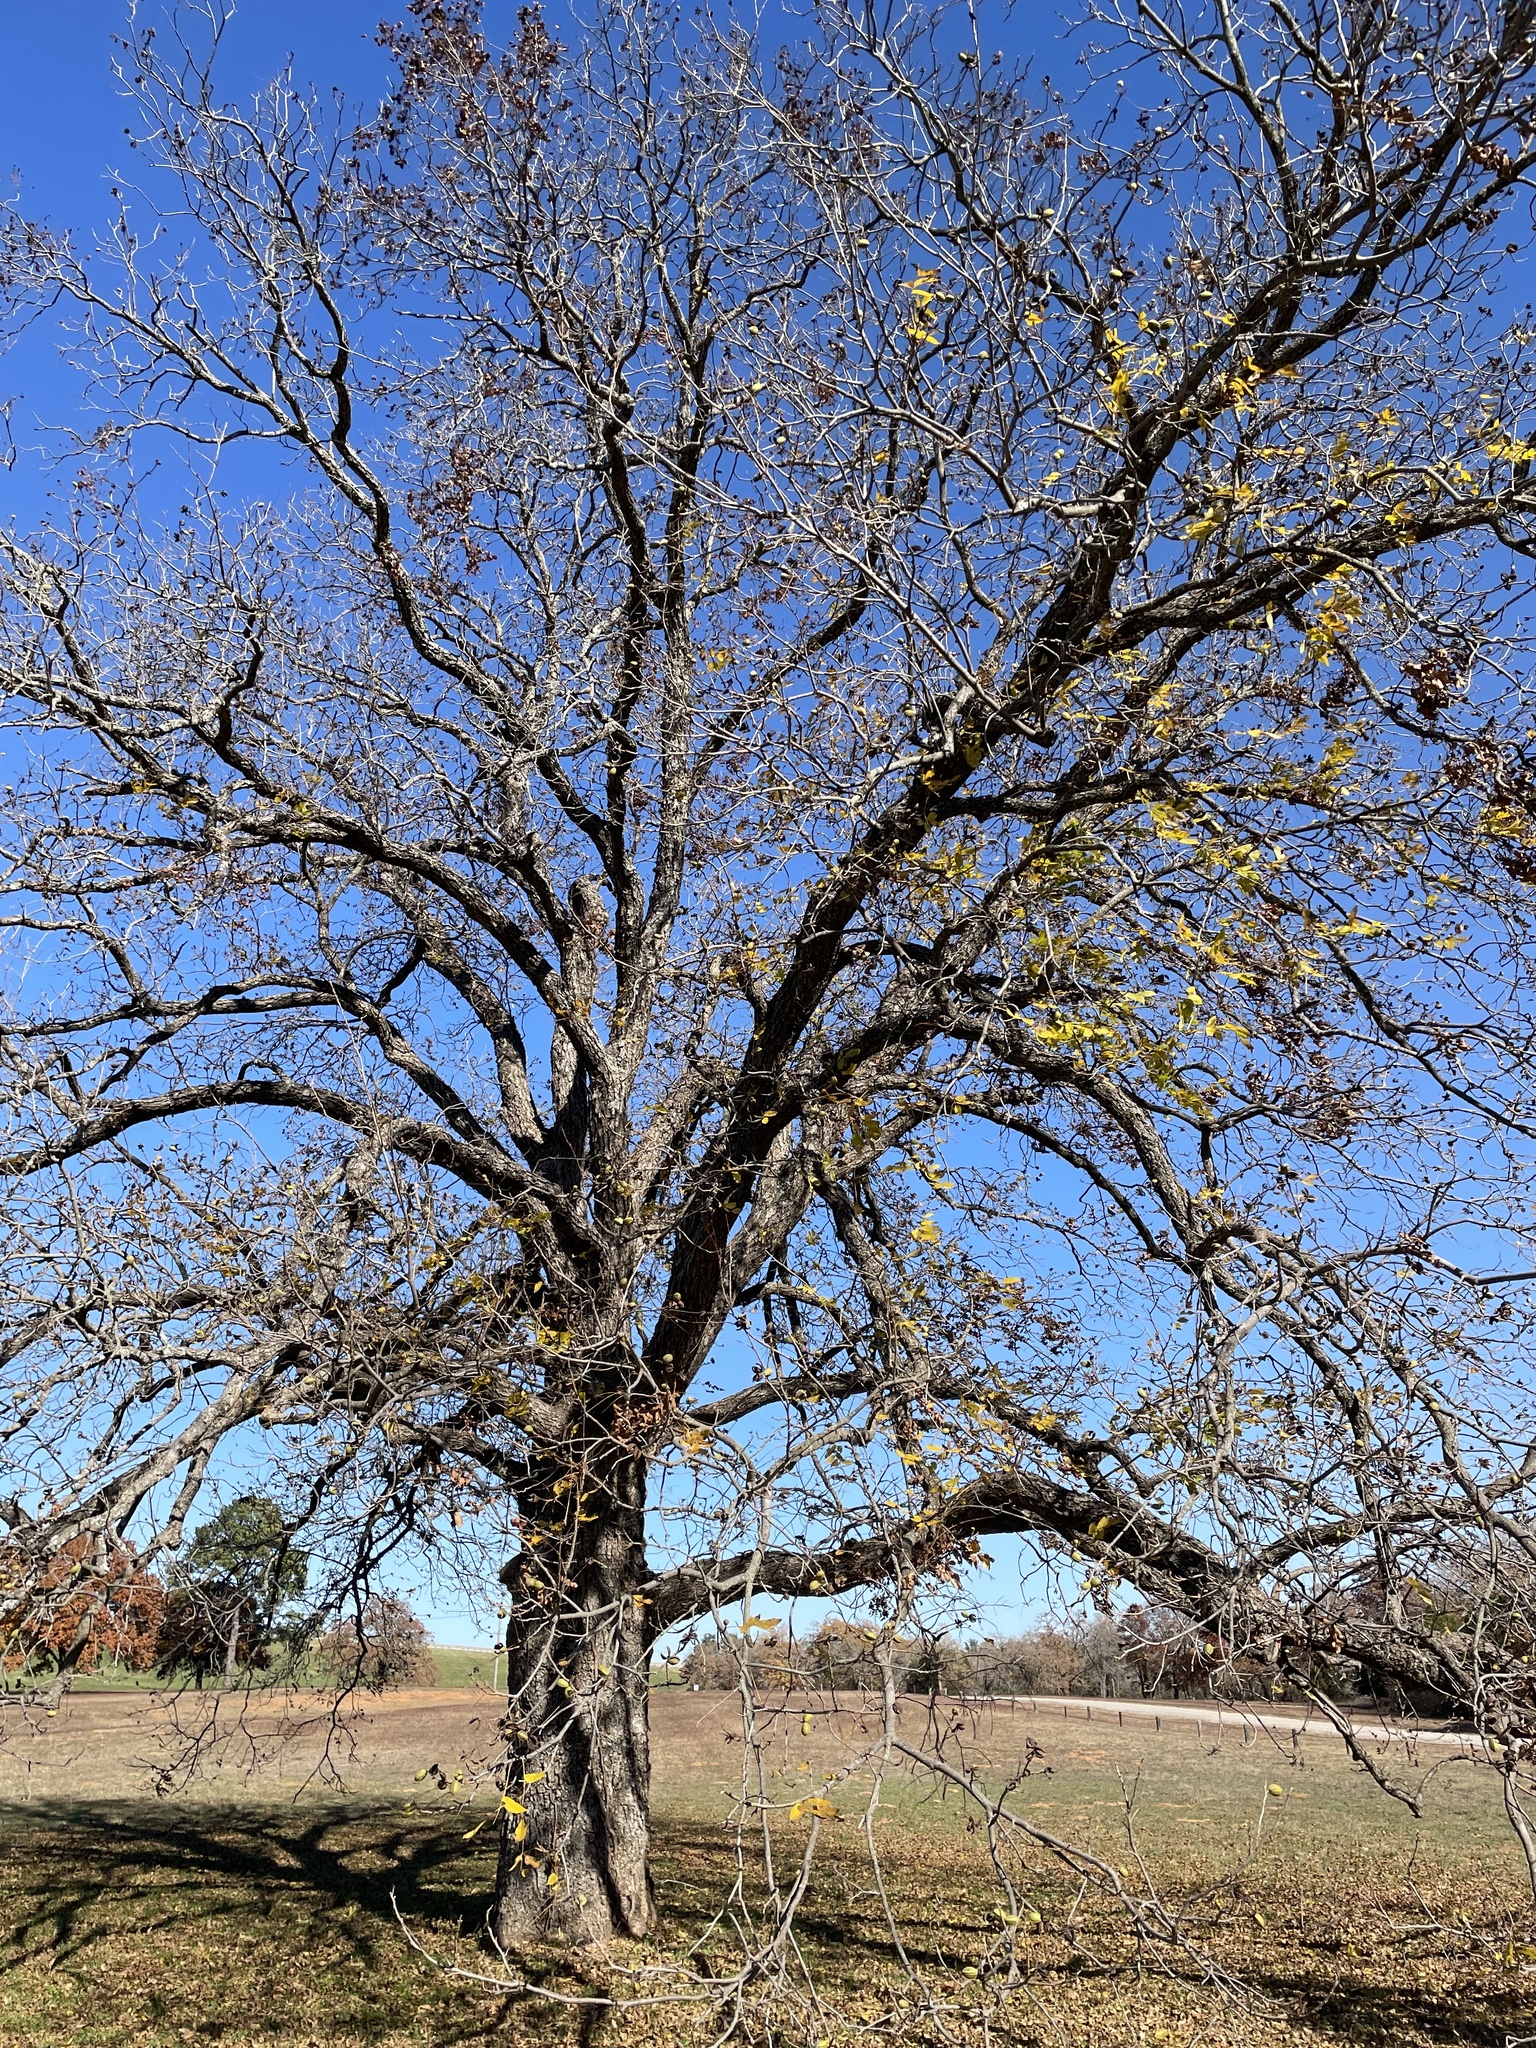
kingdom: Plantae
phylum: Tracheophyta
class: Magnoliopsida
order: Fagales
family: Juglandaceae
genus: Carya
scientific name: Carya illinoinensis
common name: Pecan
